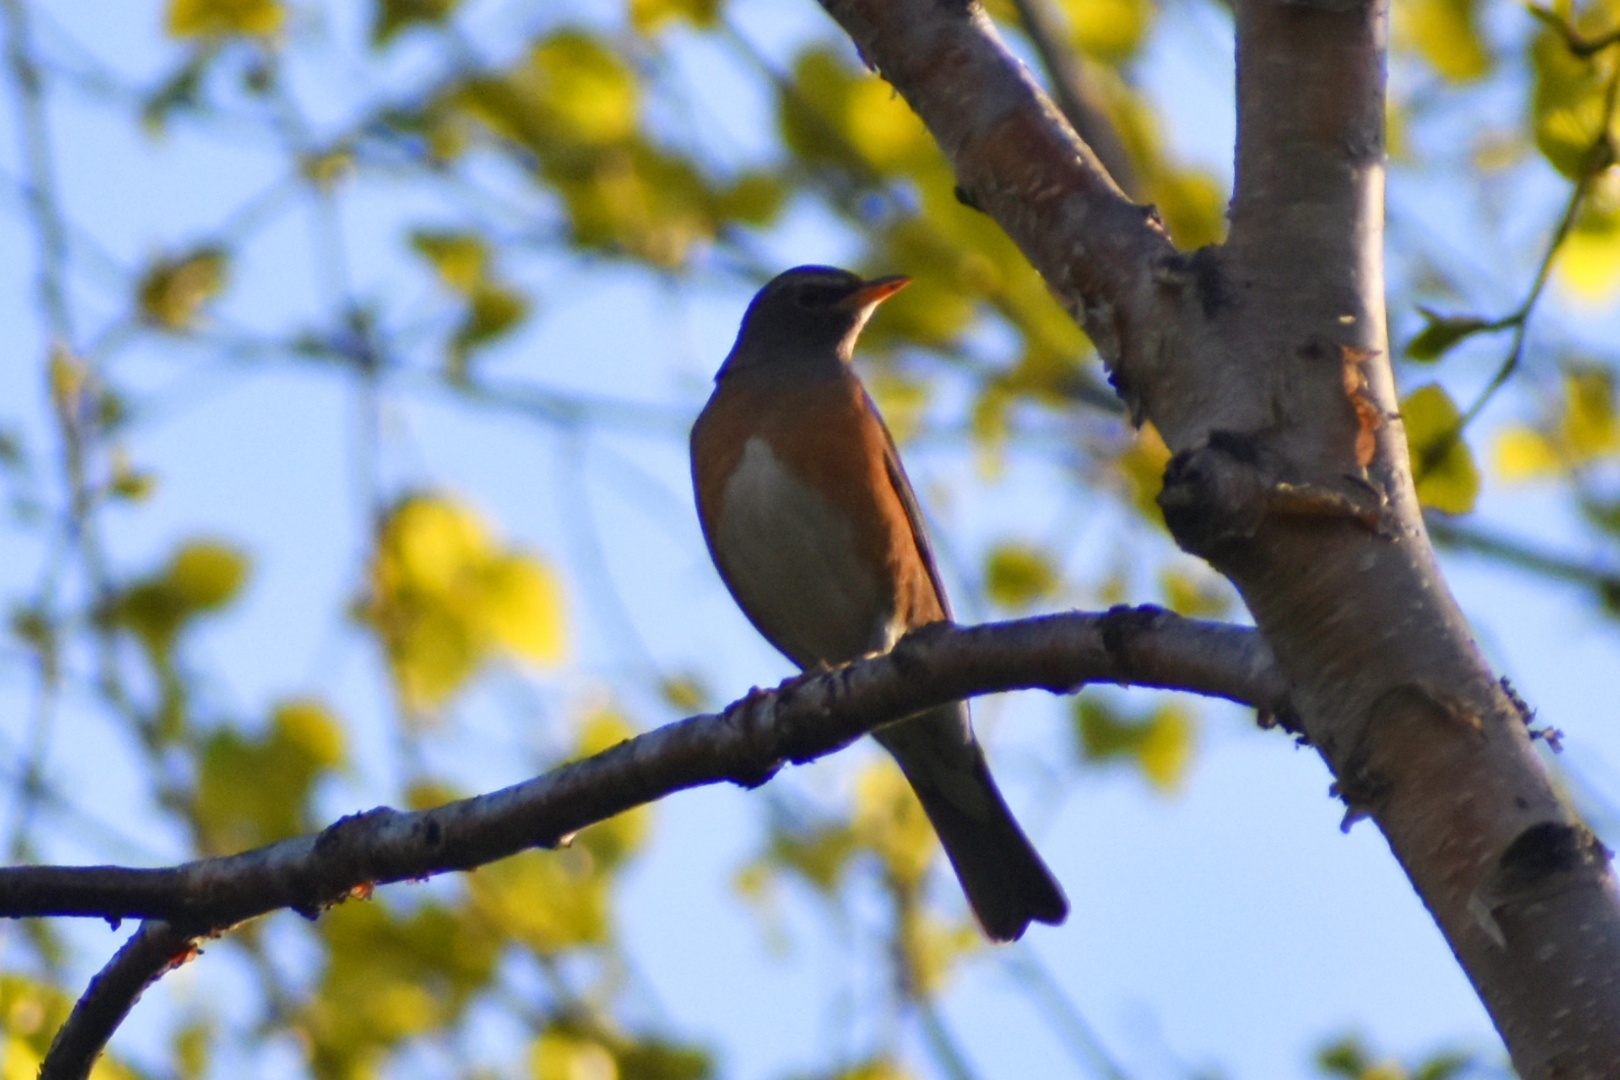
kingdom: Animalia
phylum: Chordata
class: Aves
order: Passeriformes
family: Turdidae
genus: Turdus
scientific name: Turdus obscurus
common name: Eyebrowed thrush
